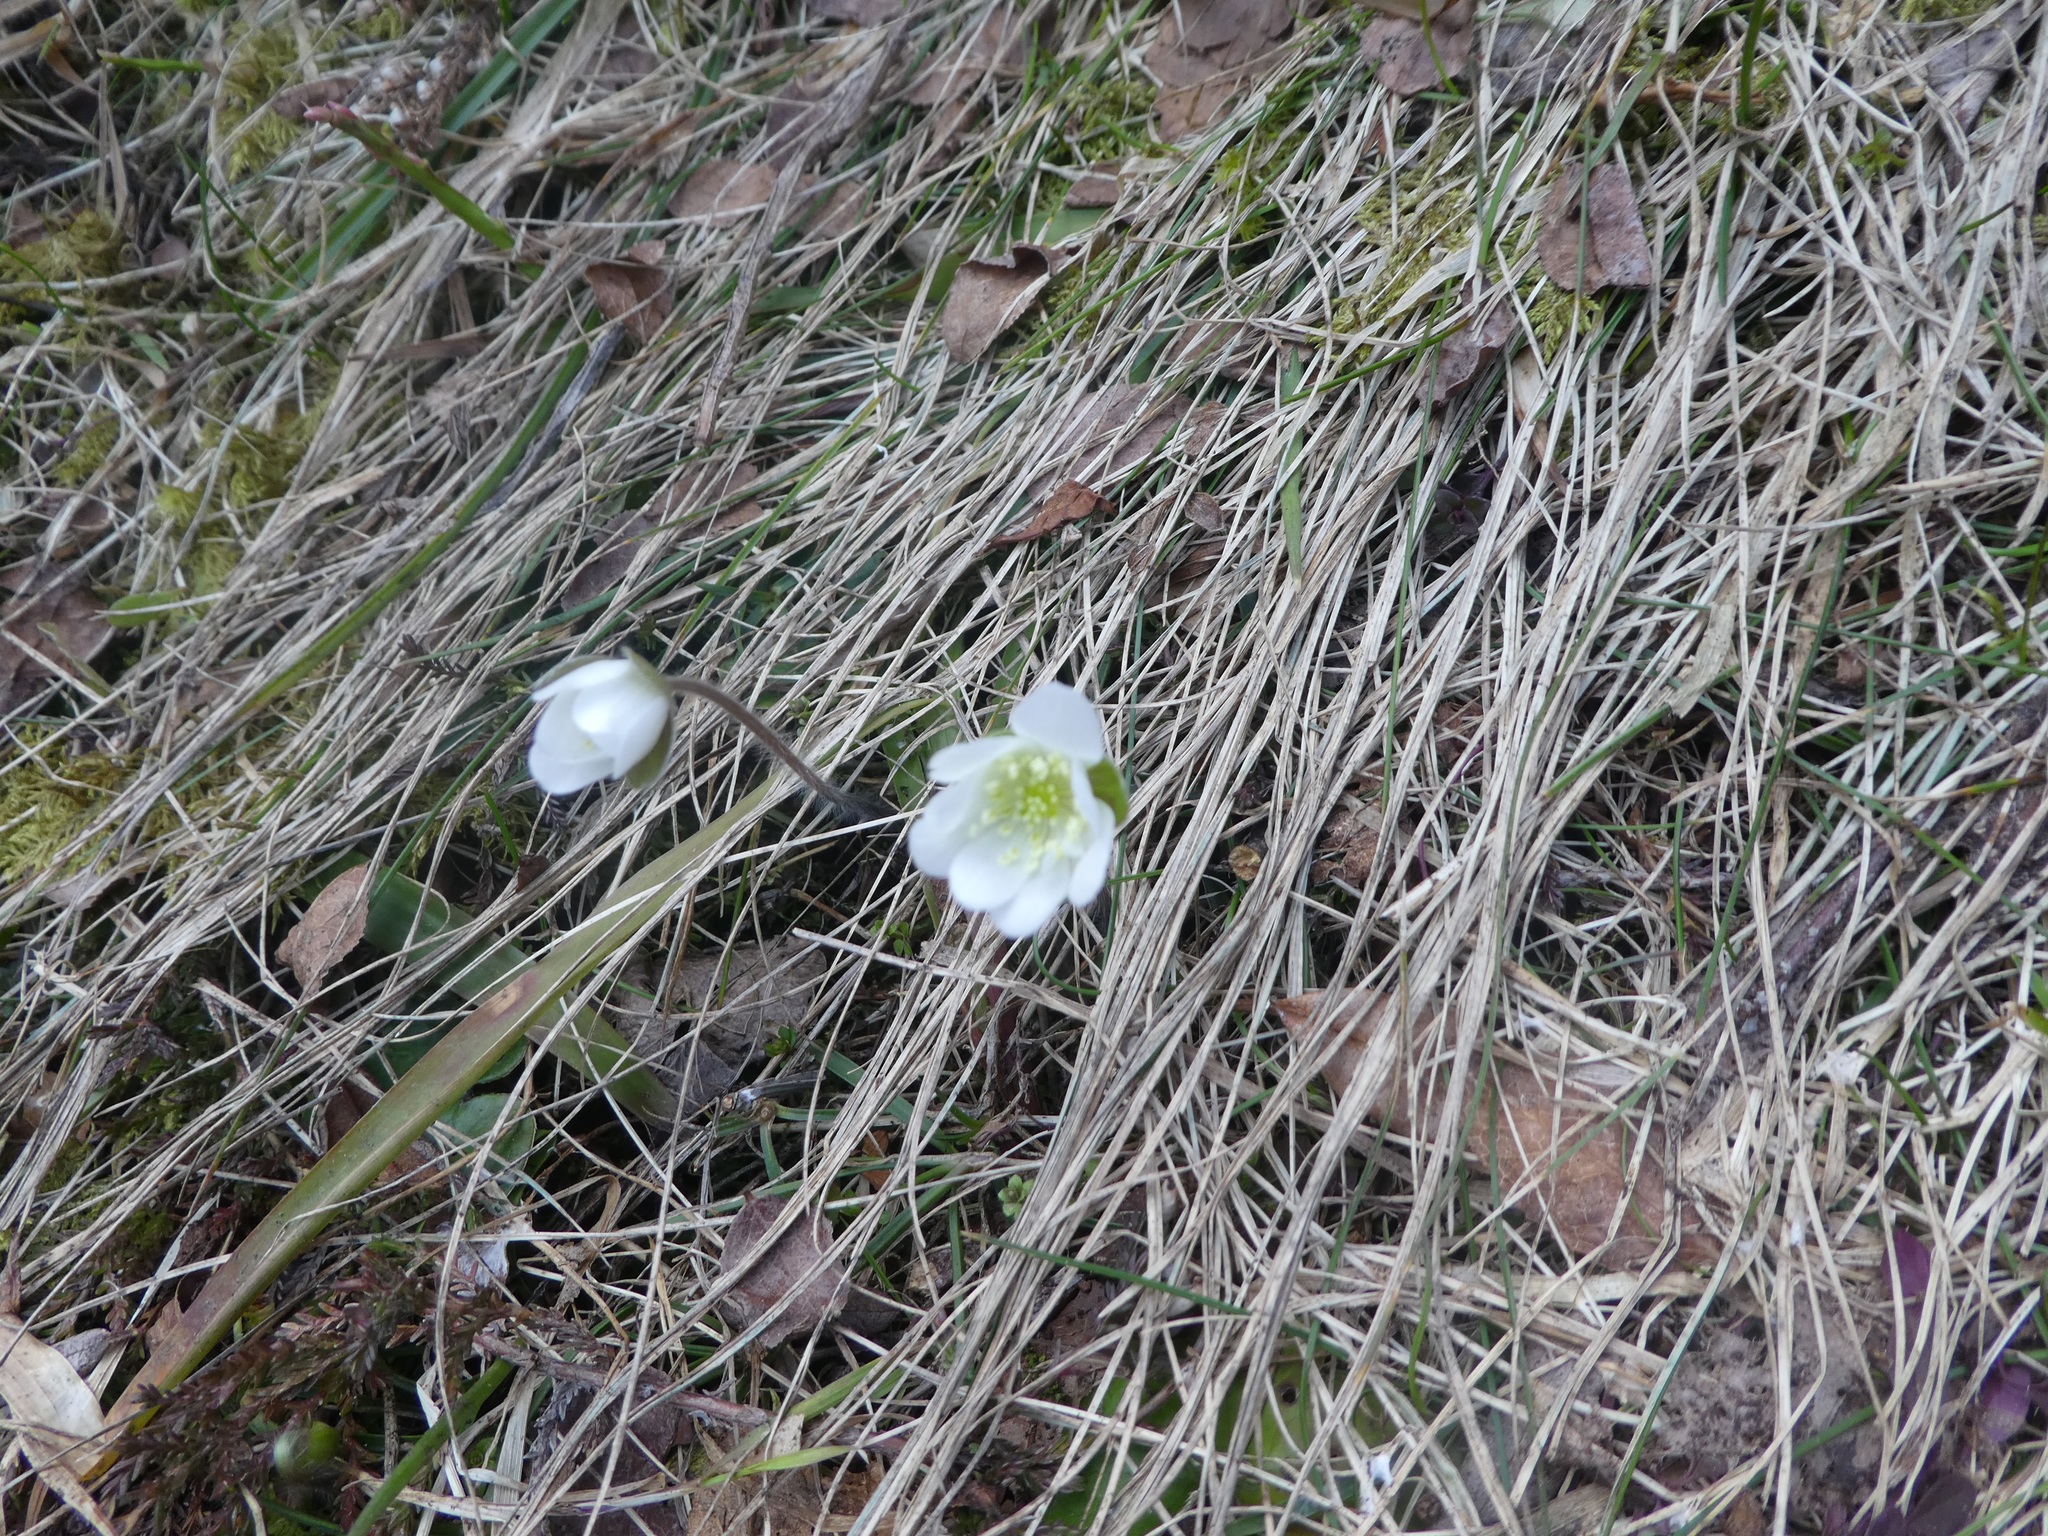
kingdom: Plantae
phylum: Tracheophyta
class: Magnoliopsida
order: Ranunculales
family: Ranunculaceae
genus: Hepatica
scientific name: Hepatica nobilis
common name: Liverleaf
